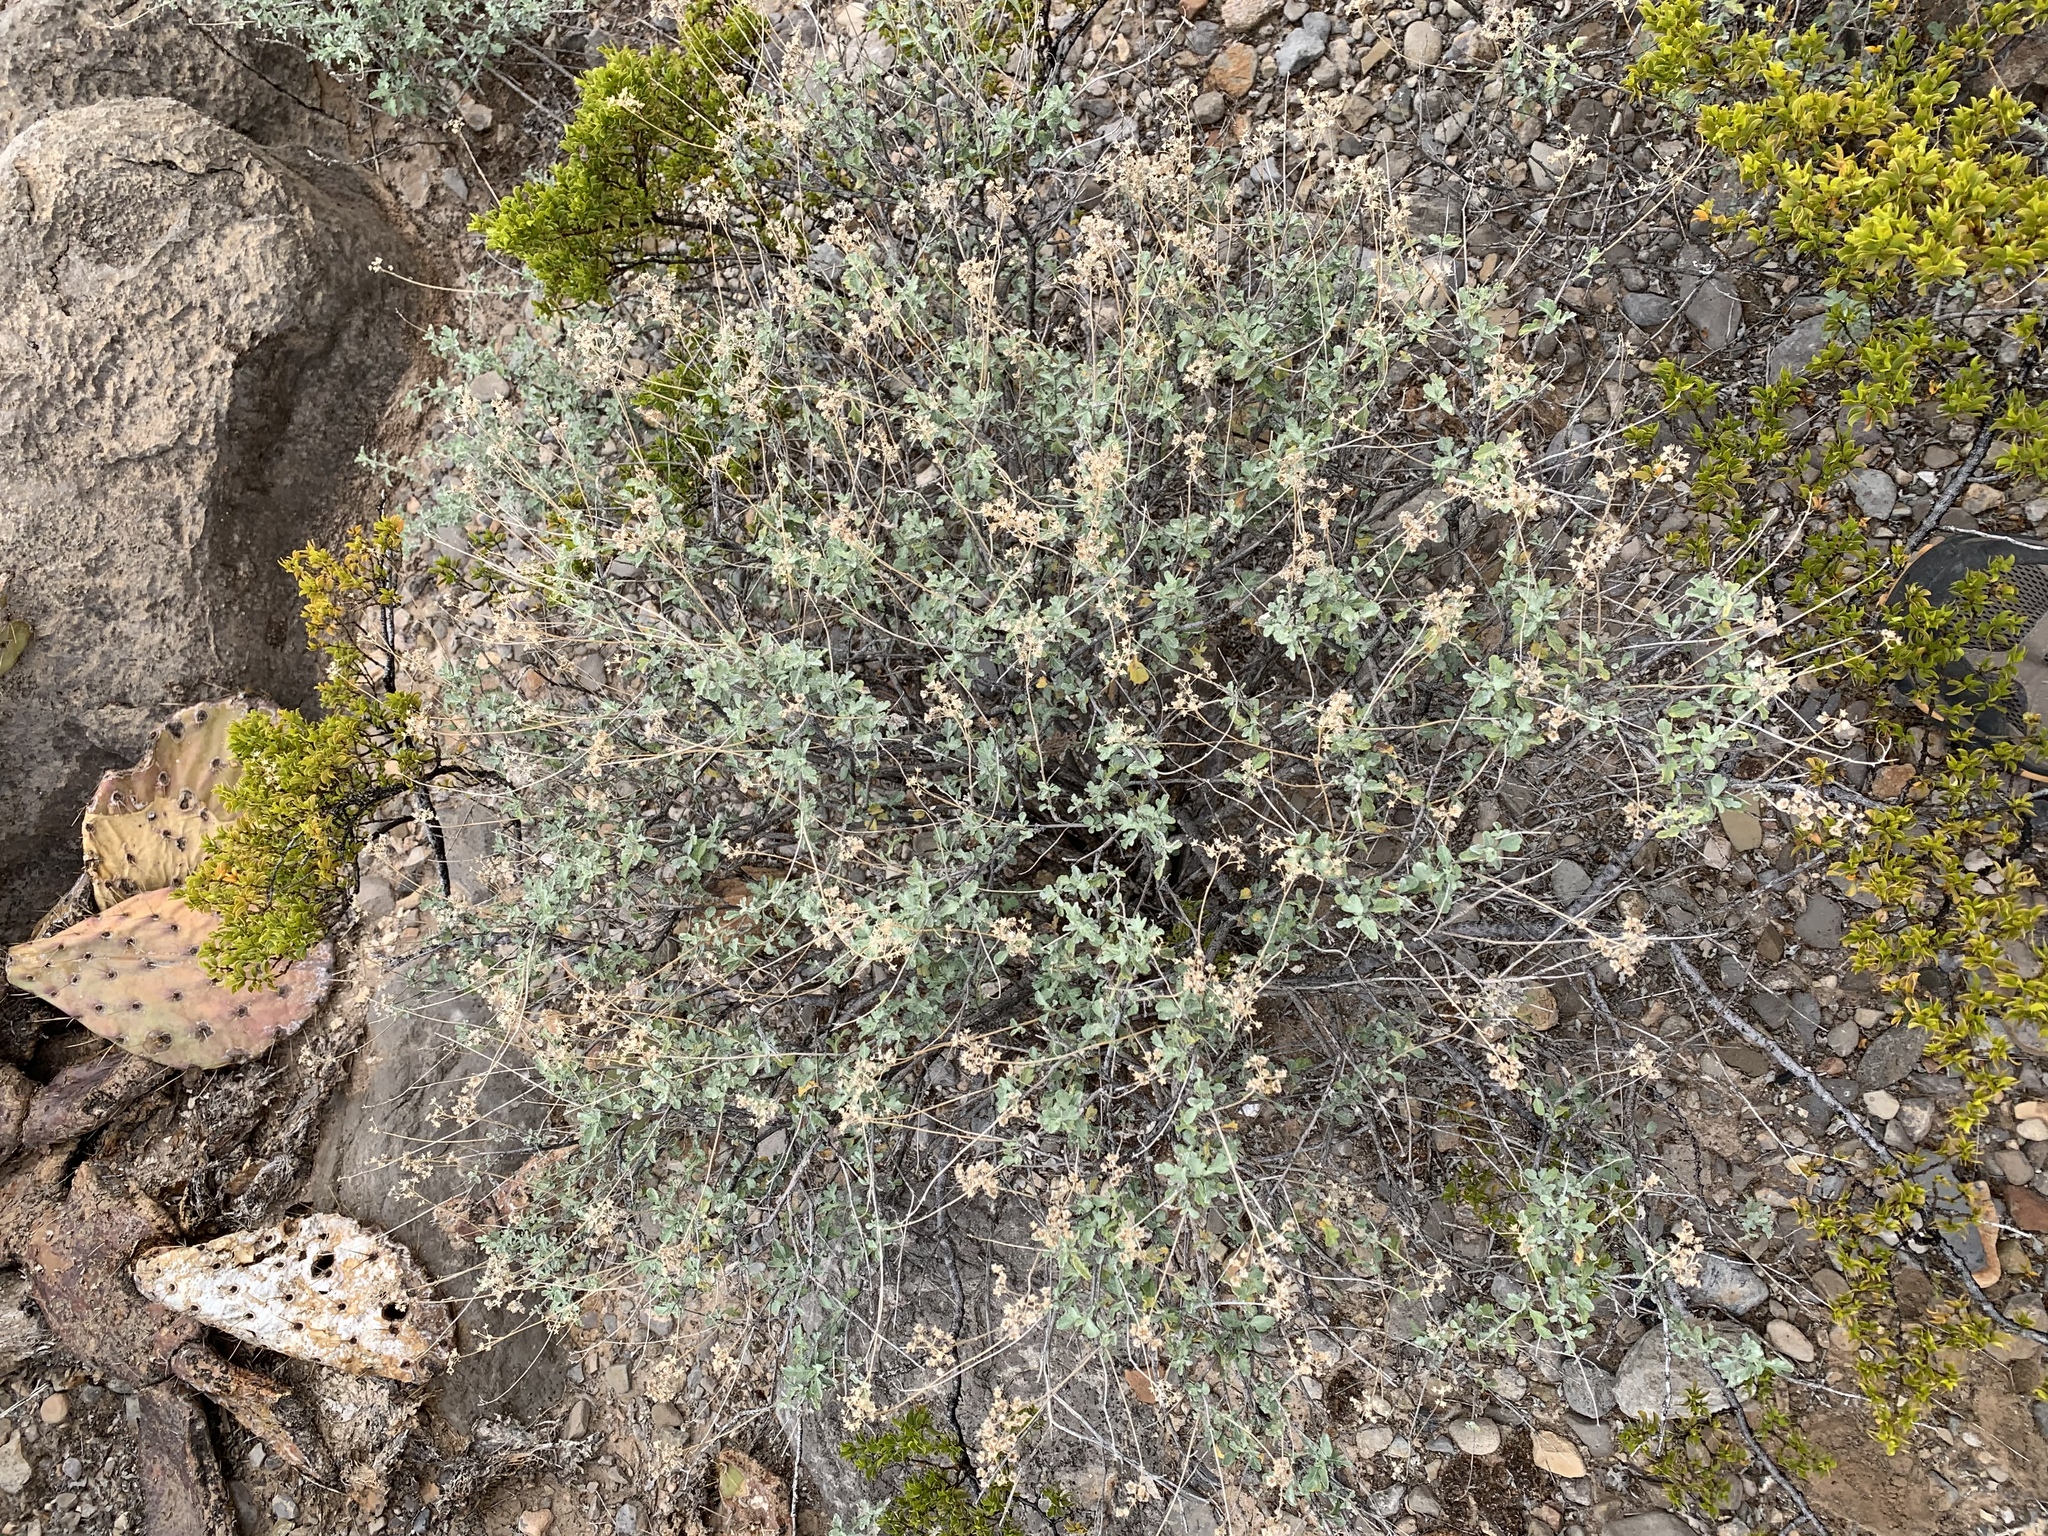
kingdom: Plantae
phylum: Tracheophyta
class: Magnoliopsida
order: Asterales
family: Asteraceae
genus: Parthenium
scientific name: Parthenium incanum
